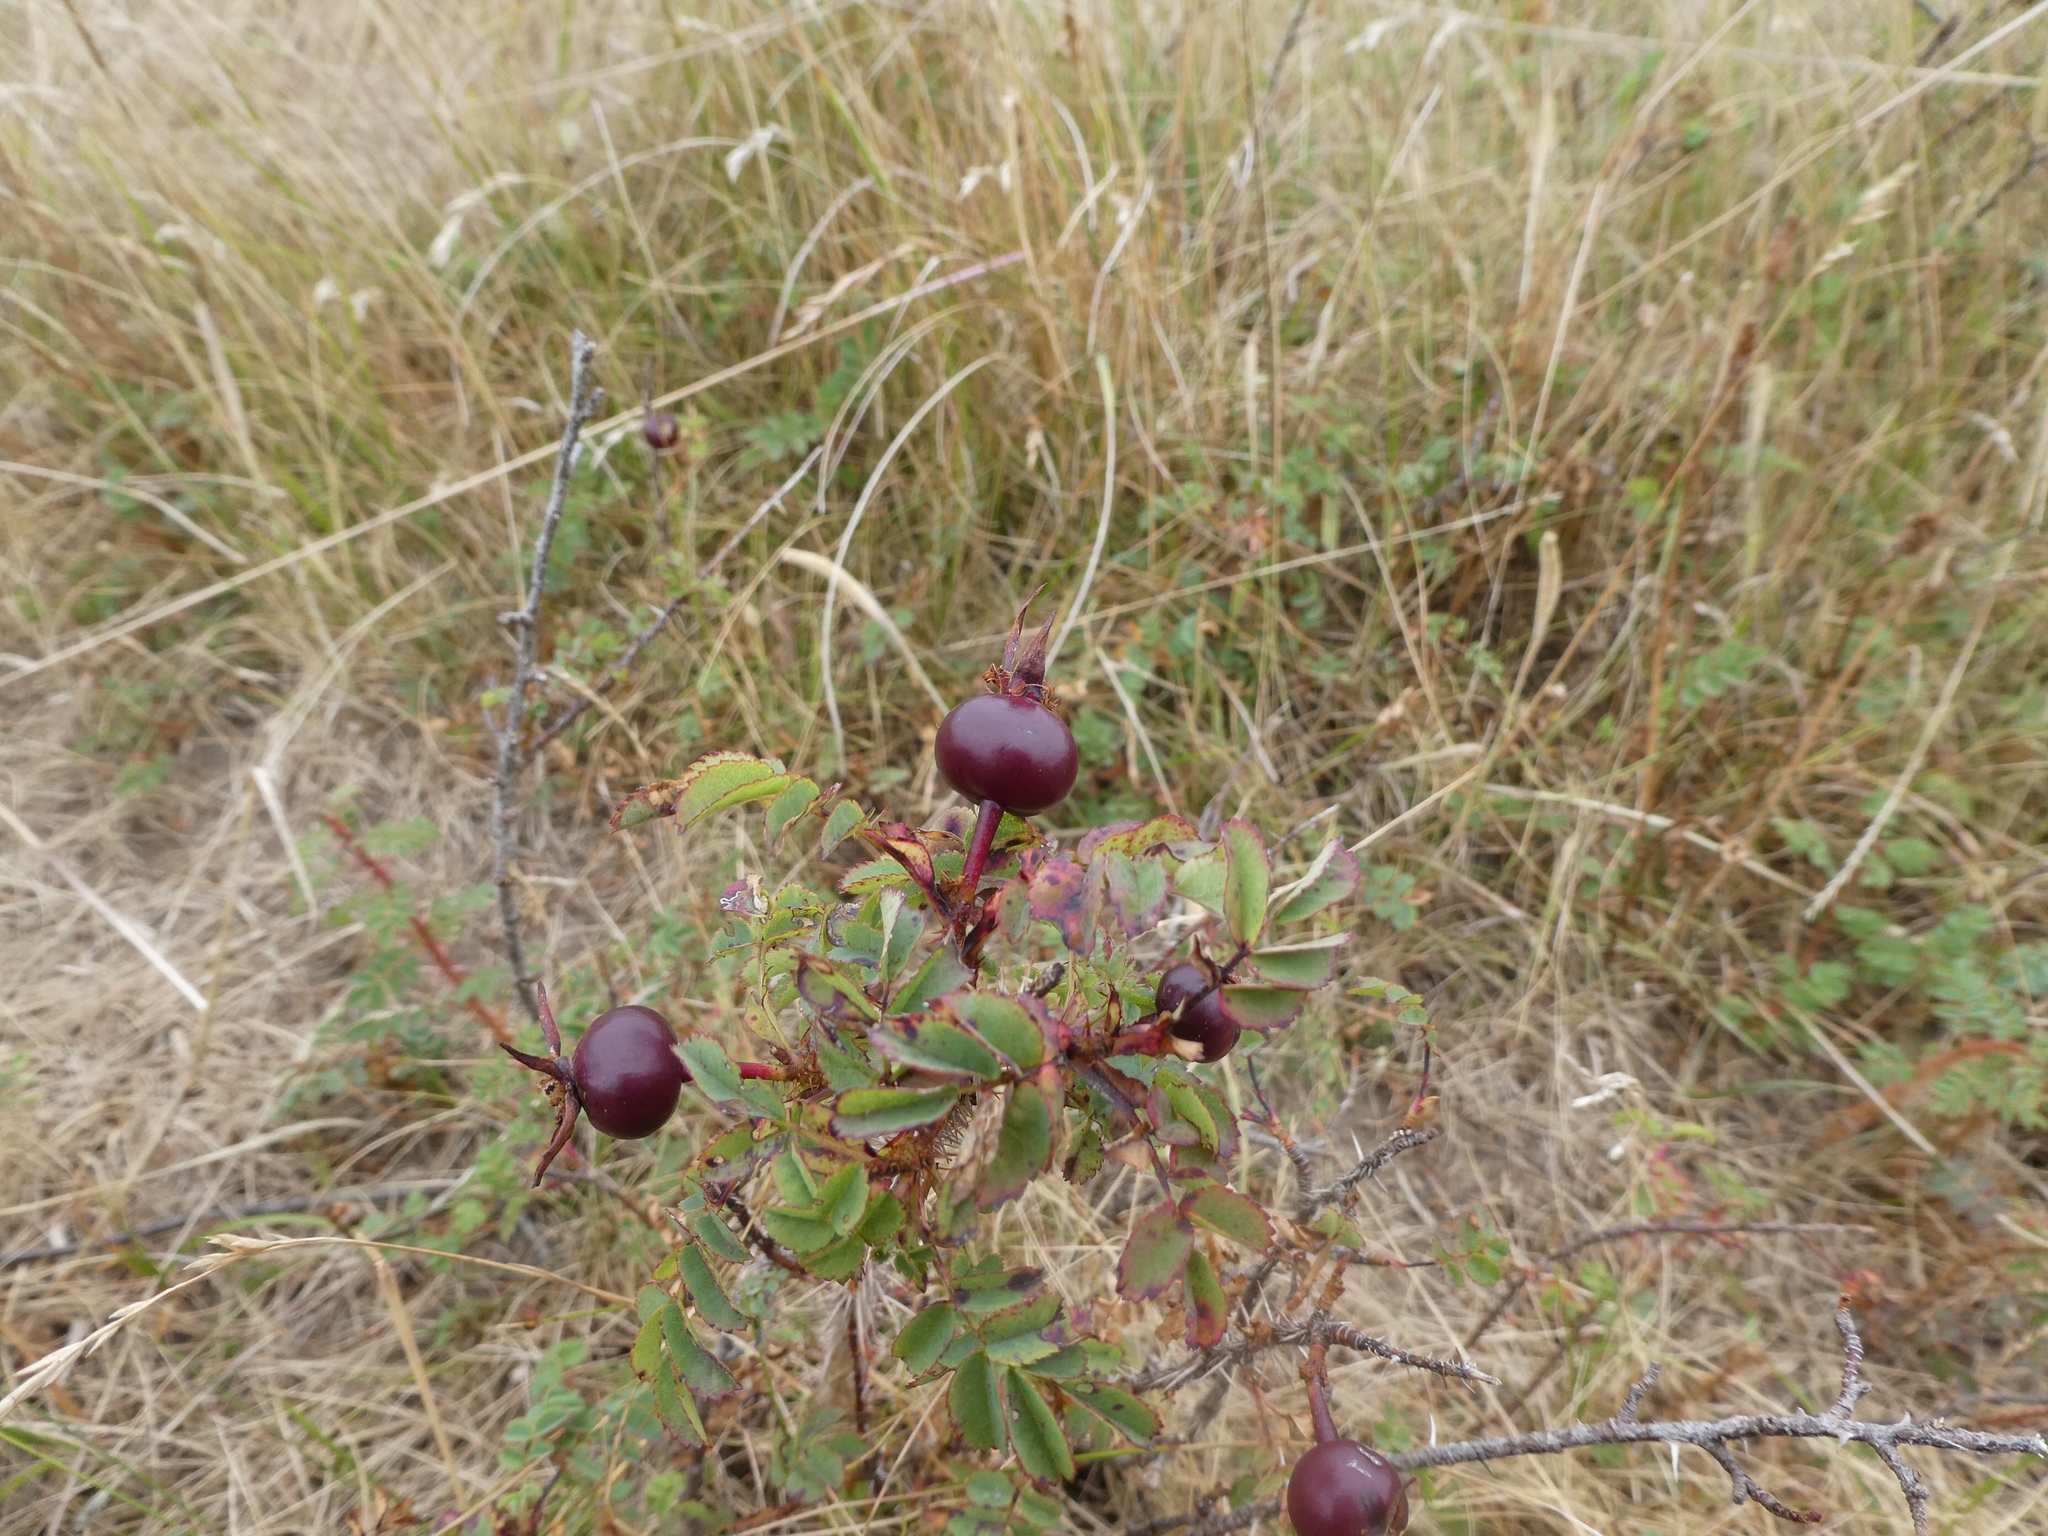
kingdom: Plantae
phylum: Tracheophyta
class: Magnoliopsida
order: Rosales
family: Rosaceae
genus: Rosa
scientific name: Rosa spinosissima
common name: Burnet rose
